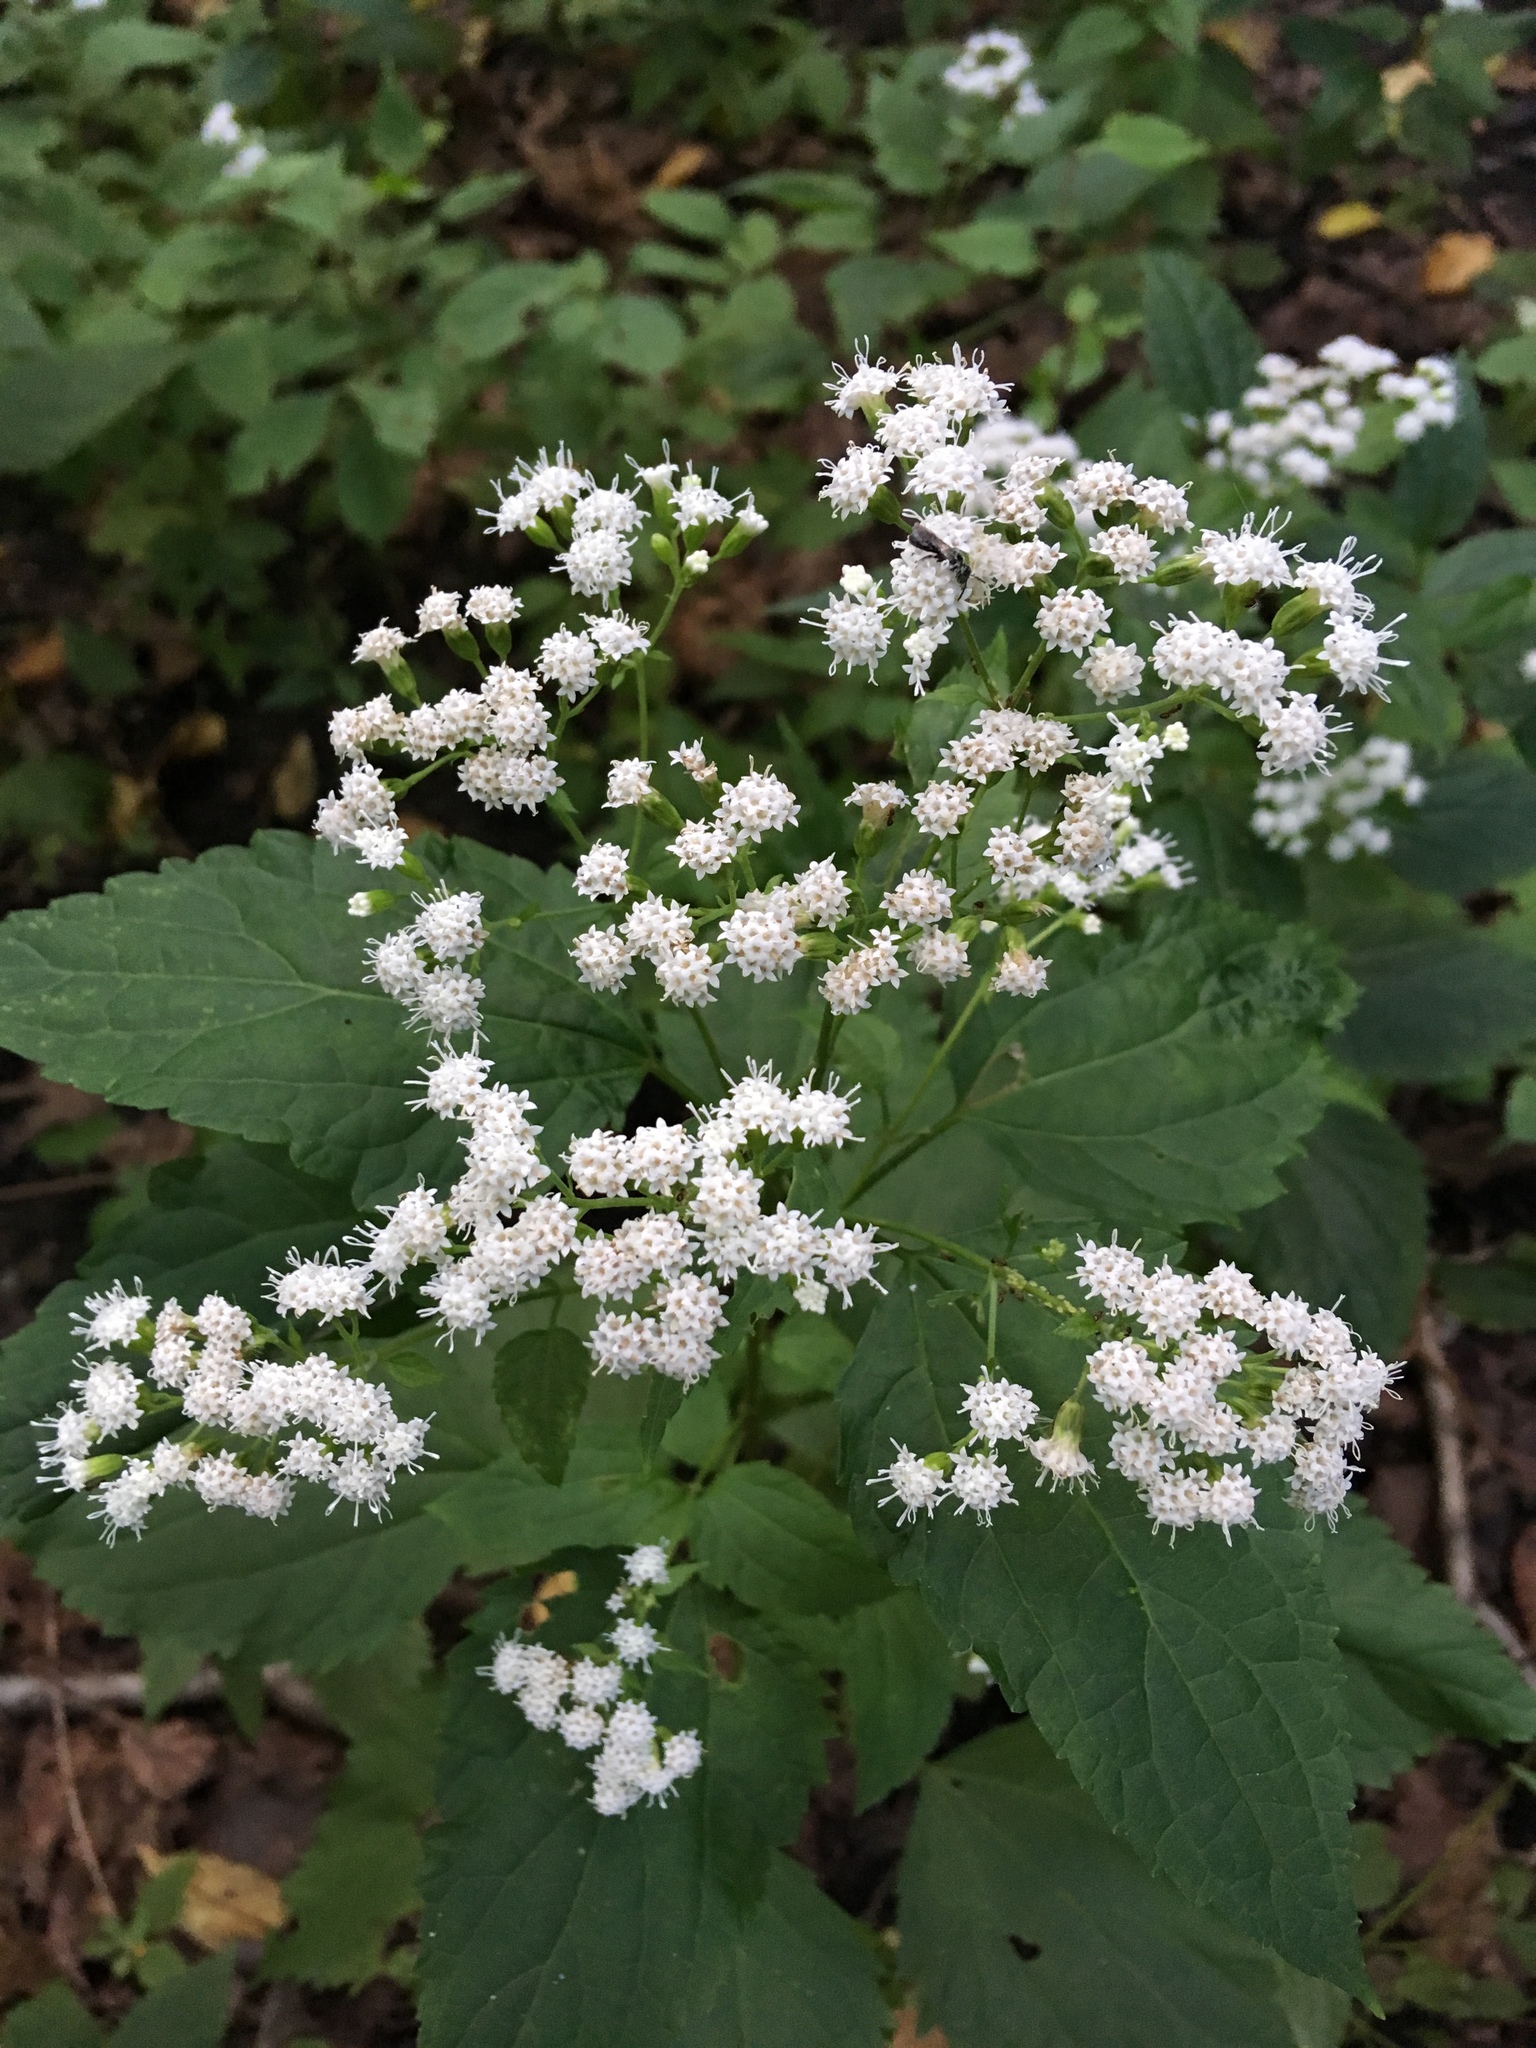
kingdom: Plantae
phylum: Tracheophyta
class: Magnoliopsida
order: Asterales
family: Asteraceae
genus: Ageratina
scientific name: Ageratina altissima
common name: White snakeroot
